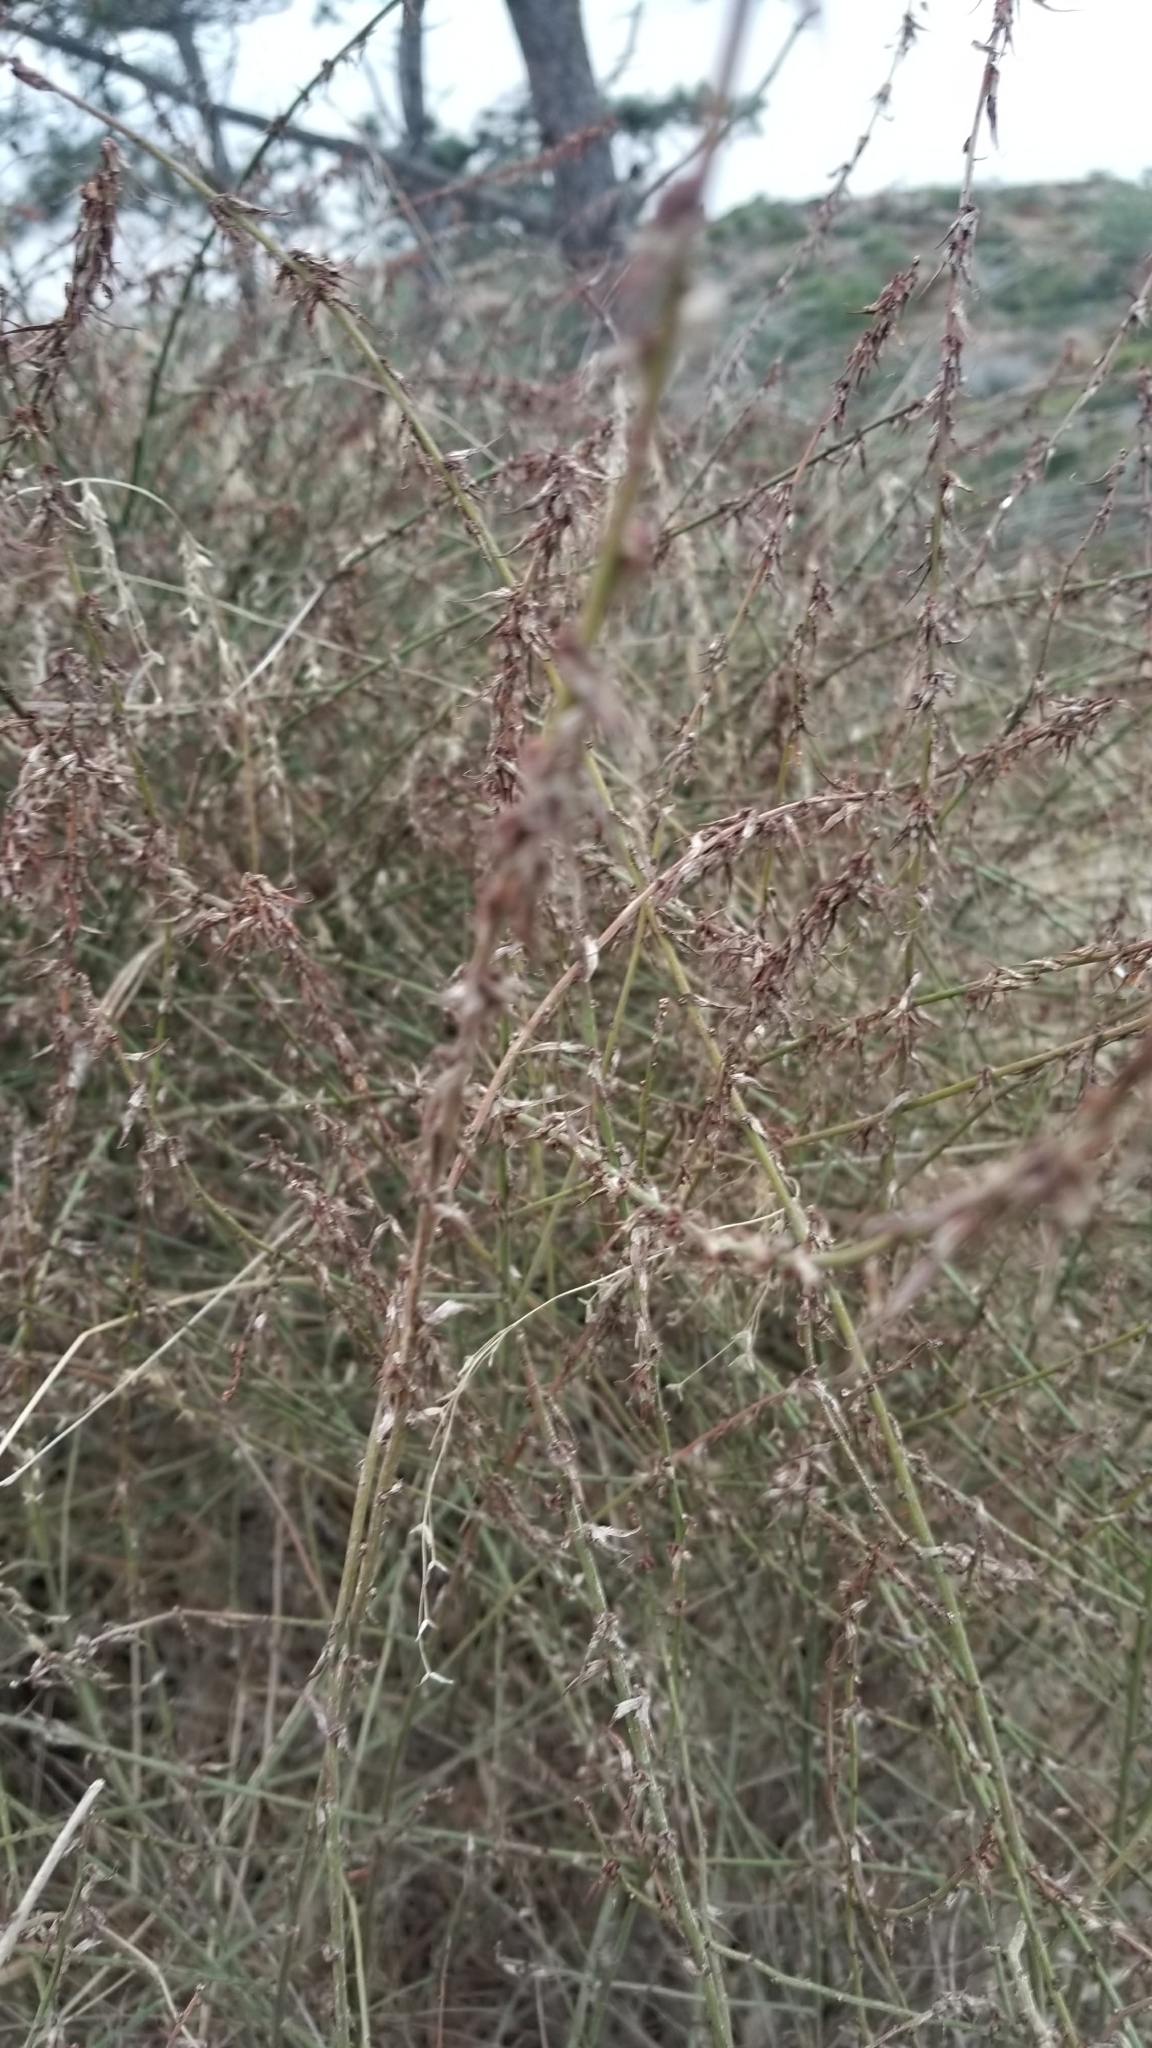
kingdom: Plantae
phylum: Tracheophyta
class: Magnoliopsida
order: Fabales
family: Fabaceae
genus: Acmispon
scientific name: Acmispon glaber
